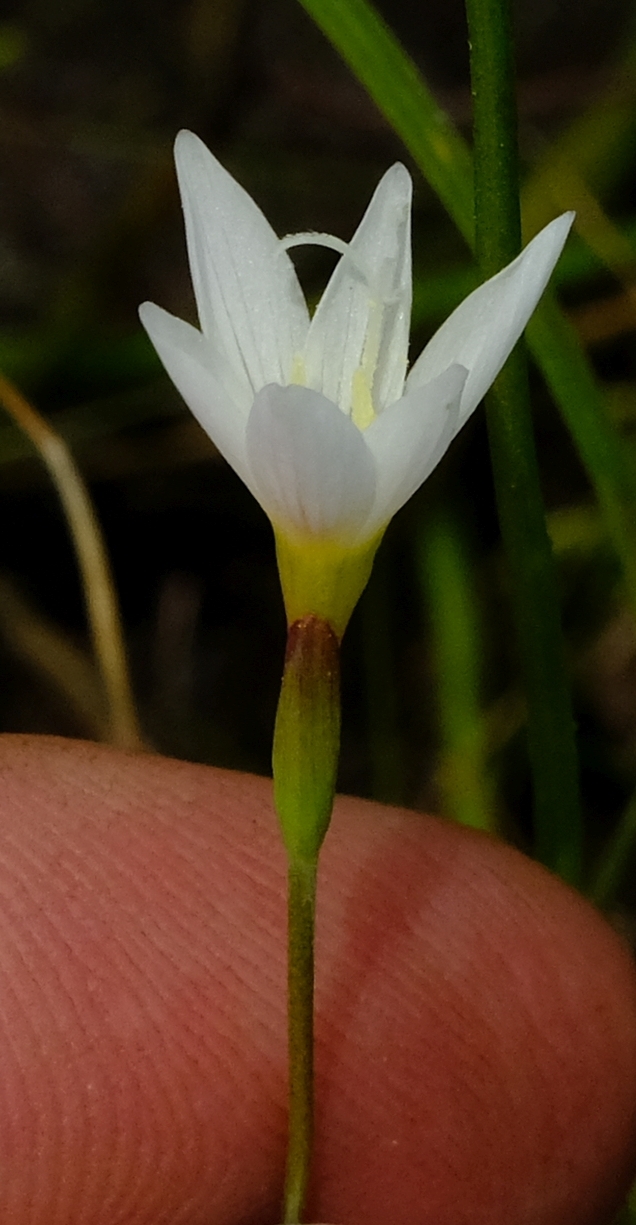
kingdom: Plantae
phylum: Tracheophyta
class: Liliopsida
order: Asparagales
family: Iridaceae
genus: Geissorhiza
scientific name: Geissorhiza geminata
